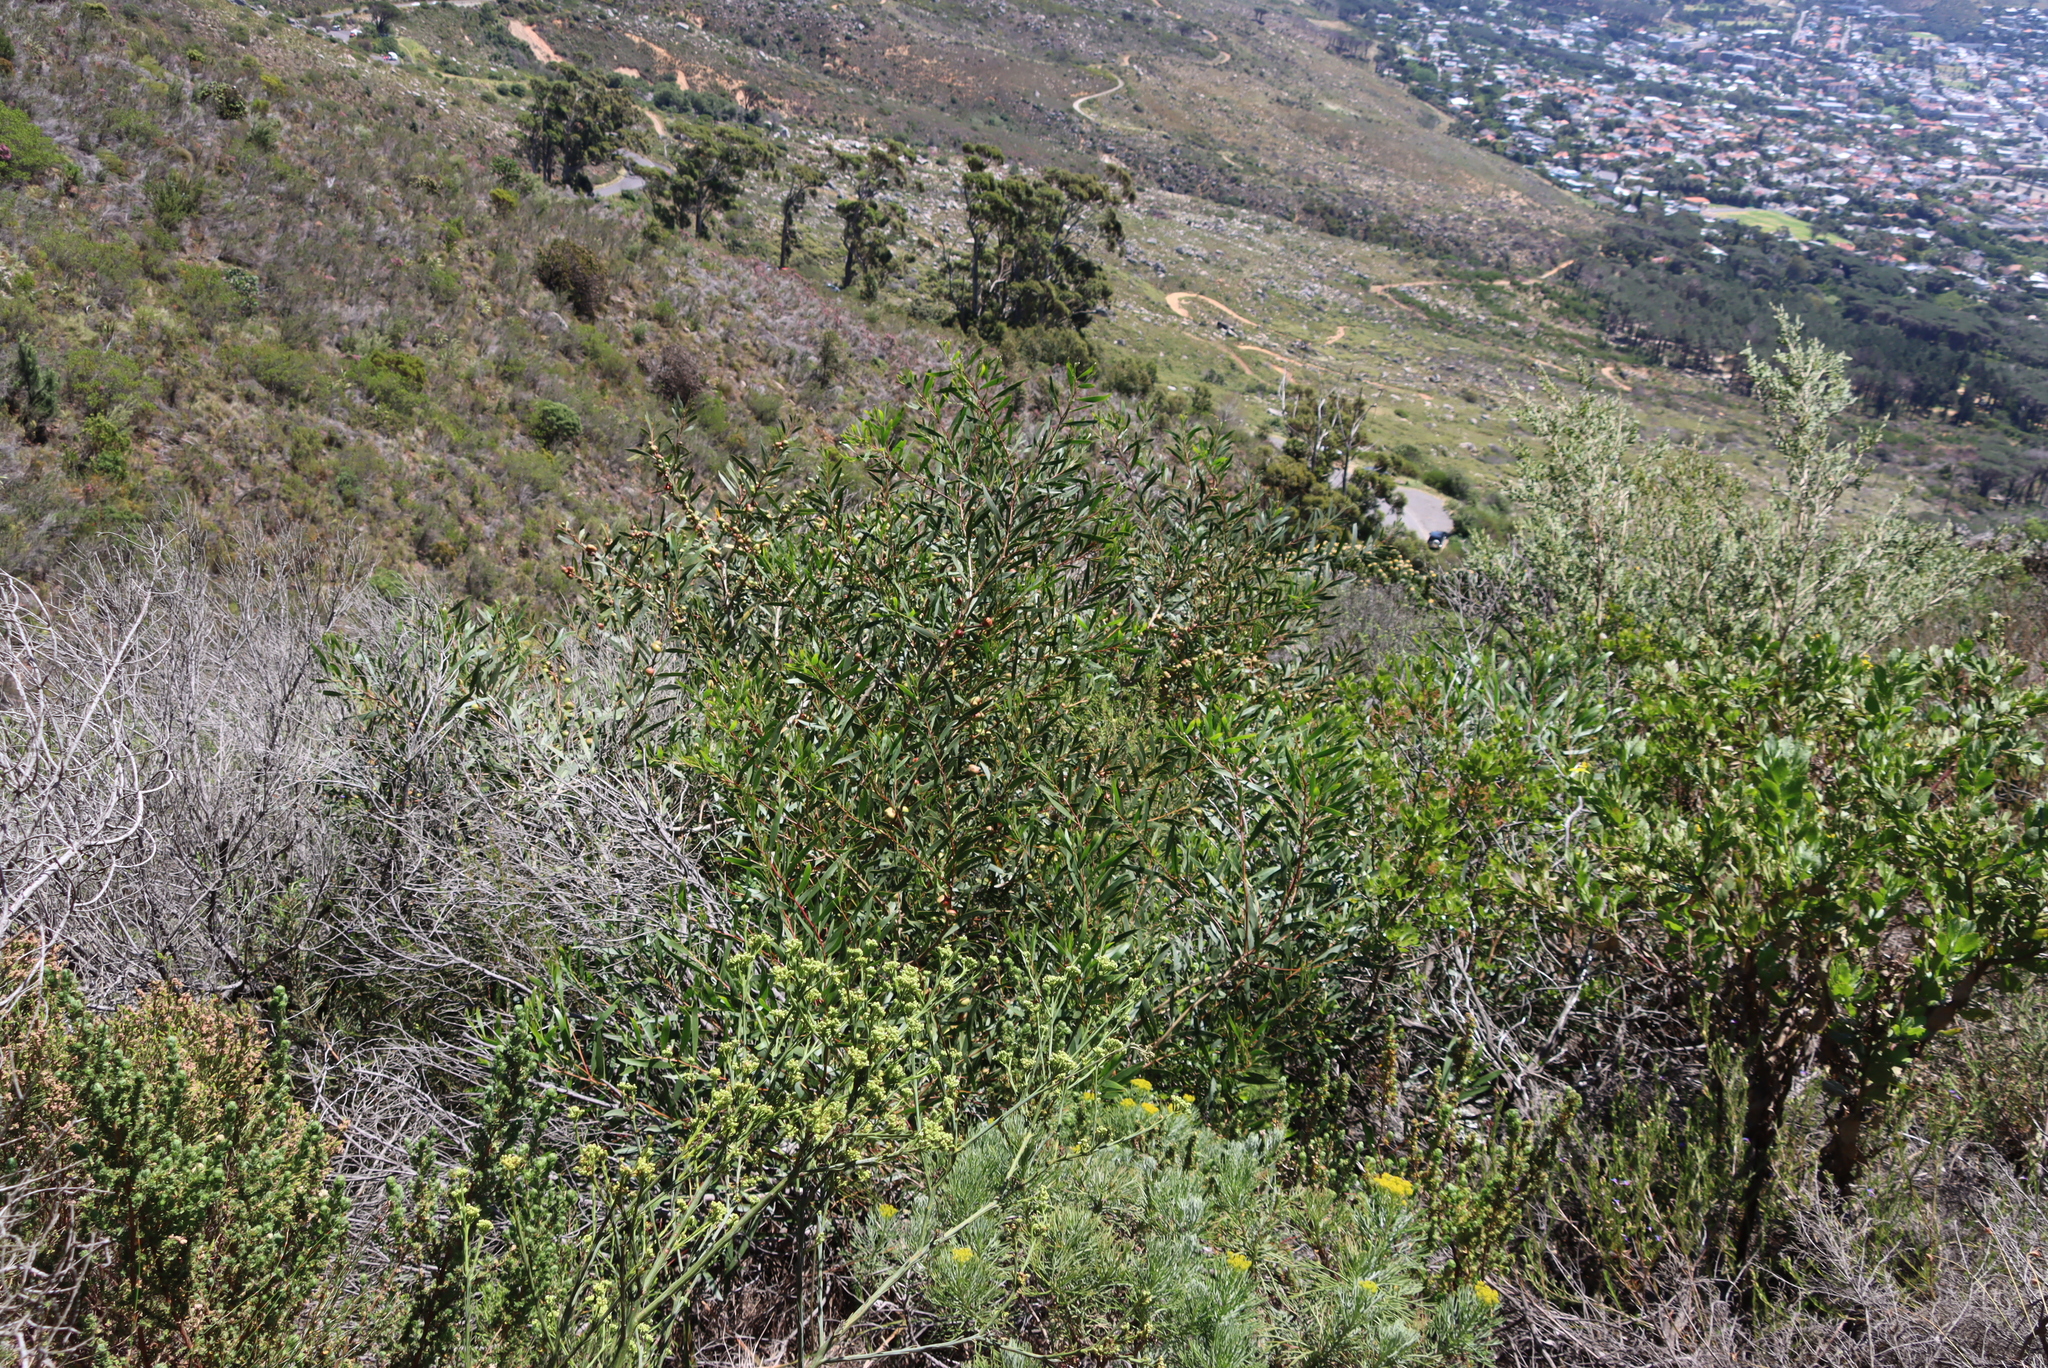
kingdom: Plantae
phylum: Tracheophyta
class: Magnoliopsida
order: Fabales
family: Fabaceae
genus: Acacia
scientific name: Acacia longifolia
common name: Sydney golden wattle
